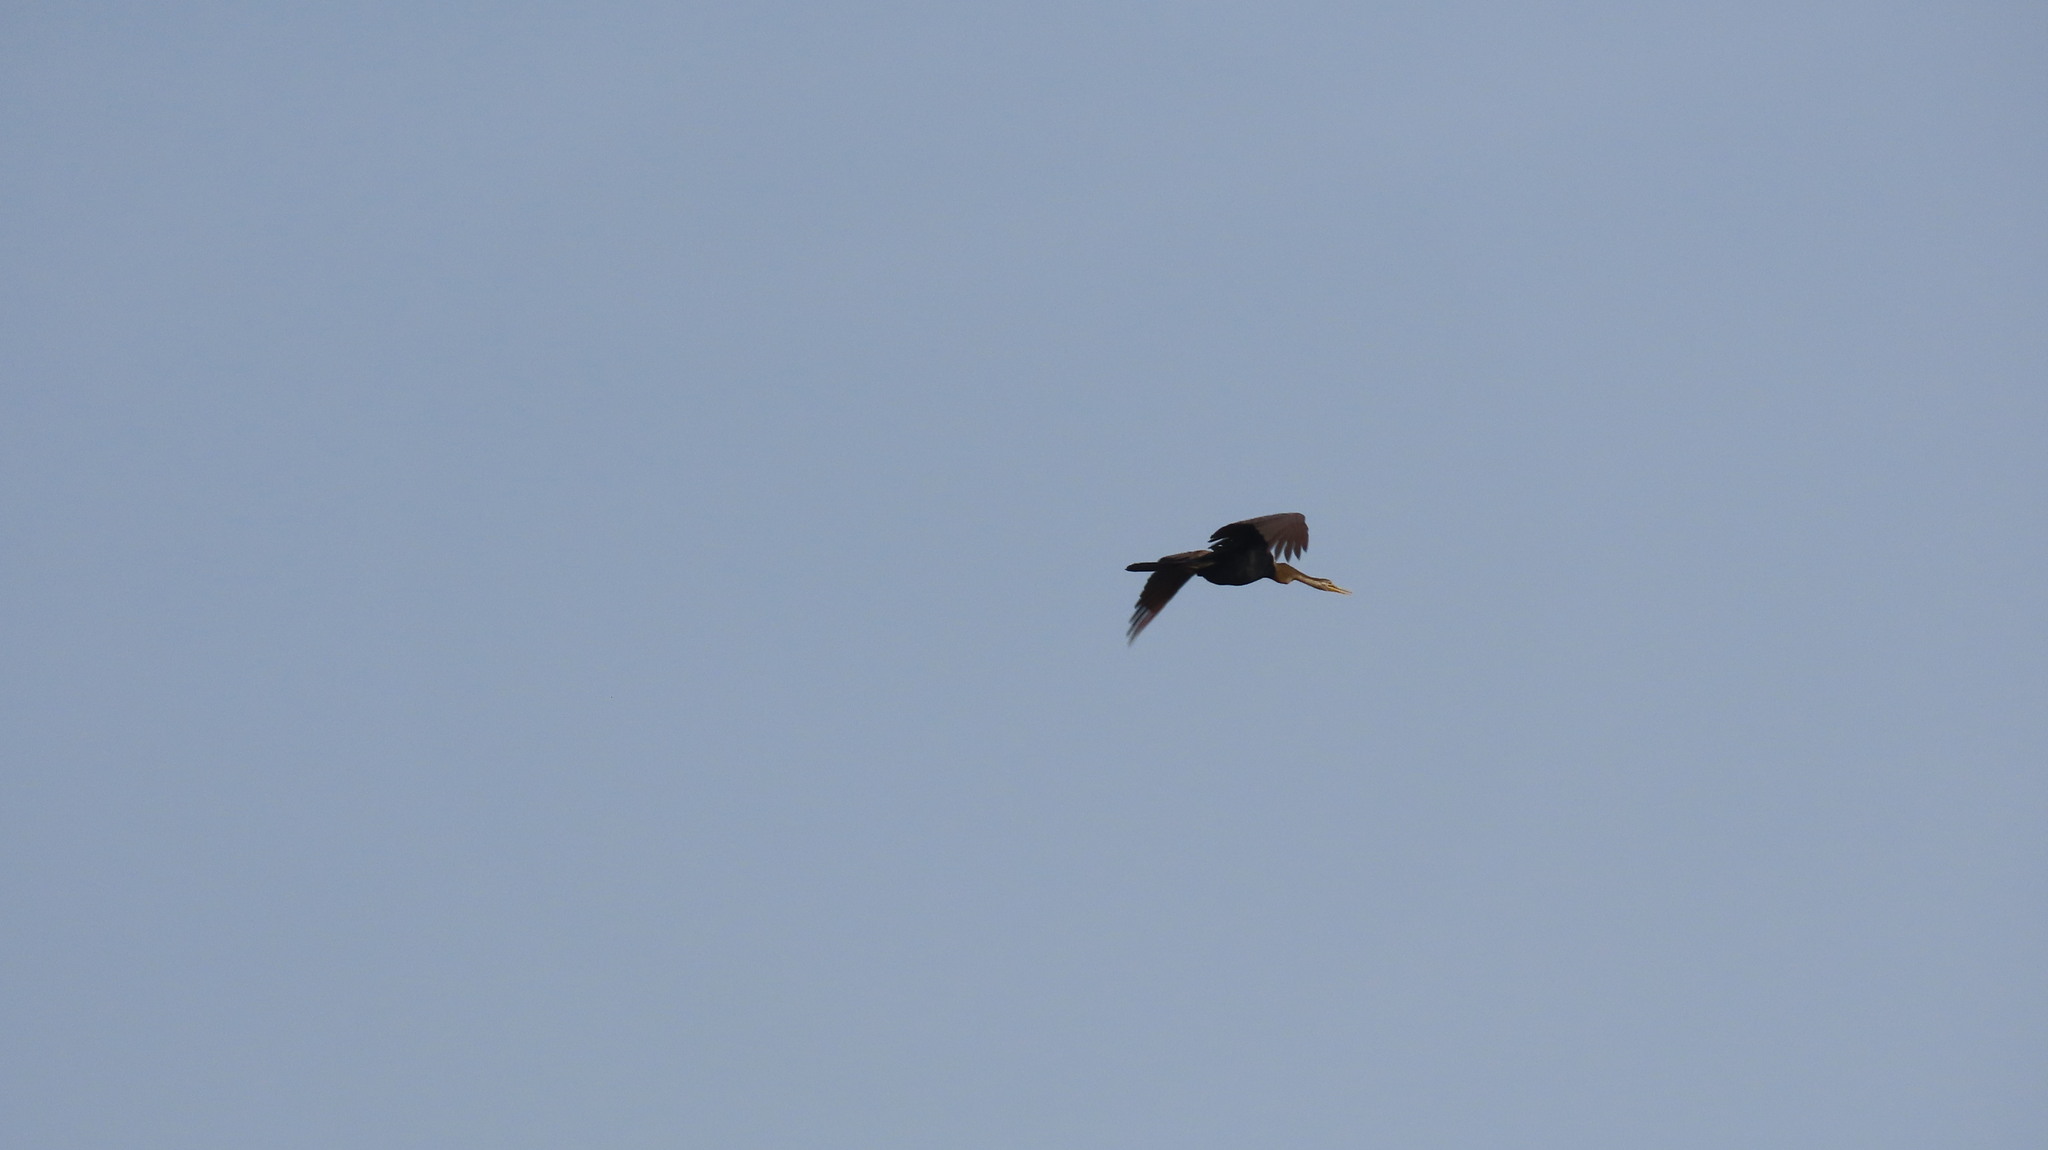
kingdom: Animalia
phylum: Chordata
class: Aves
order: Suliformes
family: Anhingidae
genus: Anhinga
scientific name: Anhinga melanogaster
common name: Oriental darter
